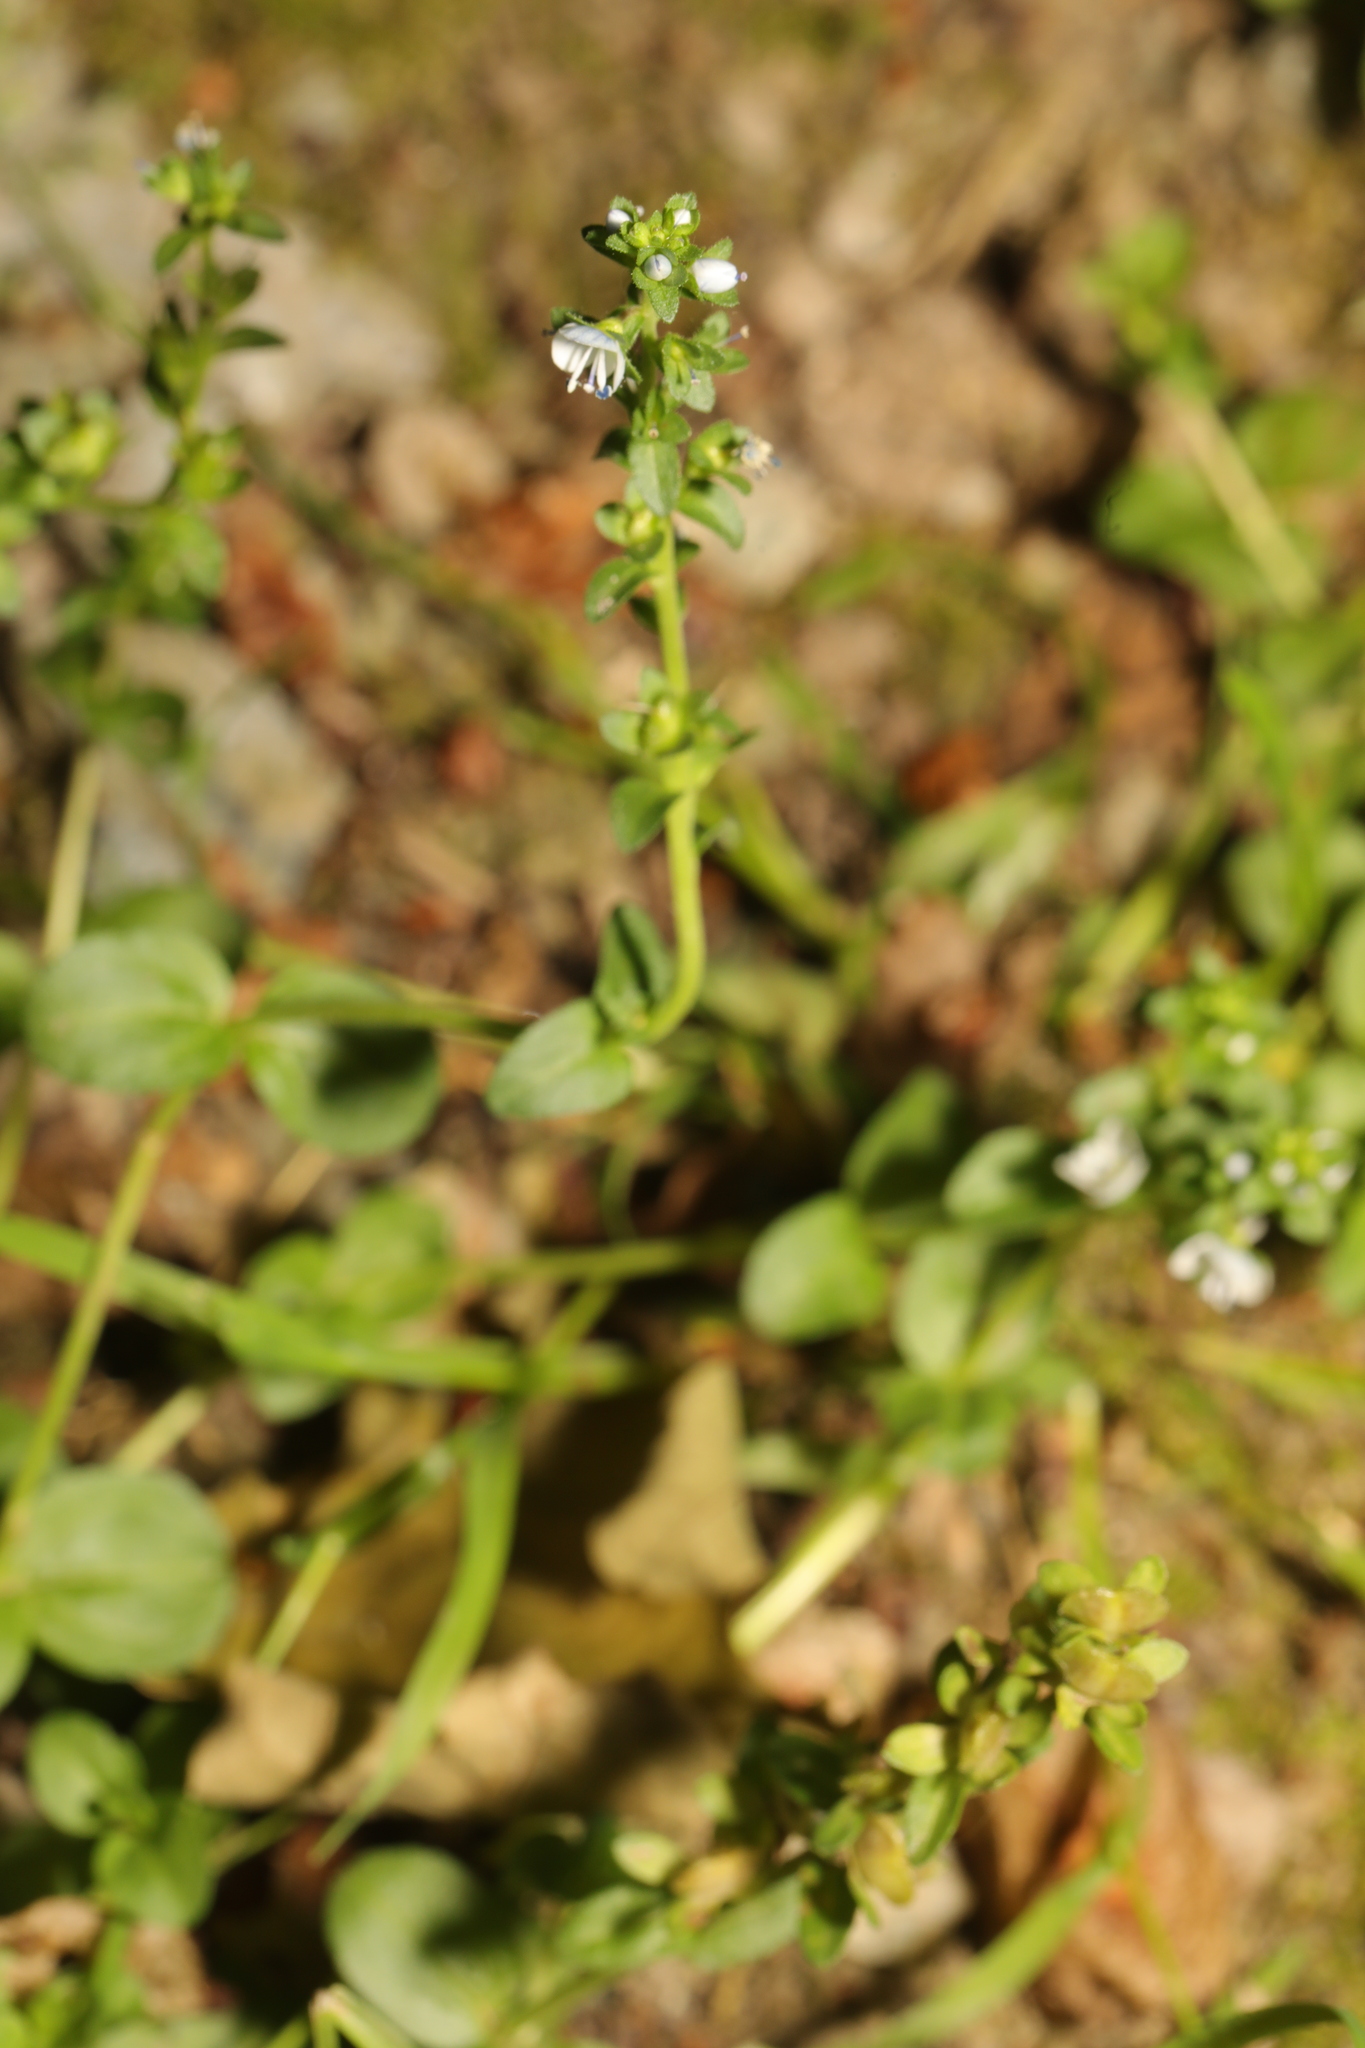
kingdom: Plantae
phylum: Tracheophyta
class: Magnoliopsida
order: Lamiales
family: Plantaginaceae
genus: Veronica
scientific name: Veronica serpyllifolia
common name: Thyme-leaved speedwell
